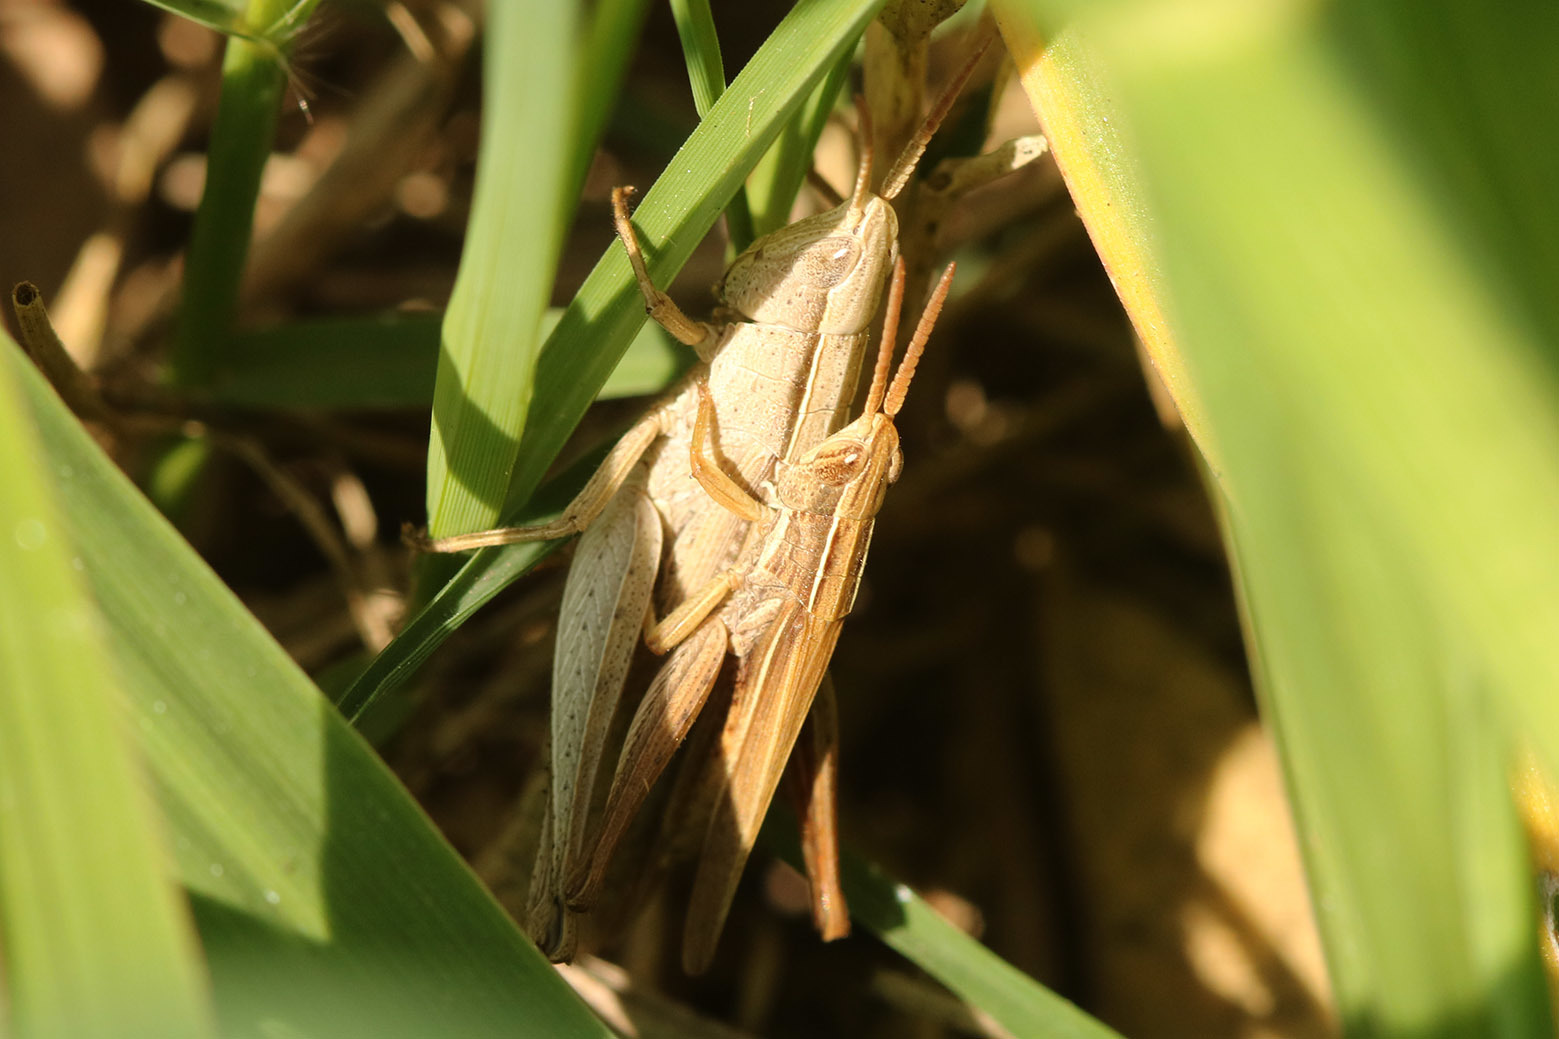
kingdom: Animalia
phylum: Arthropoda
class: Insecta
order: Orthoptera
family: Acrididae
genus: Laplatacris
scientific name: Laplatacris dispar
